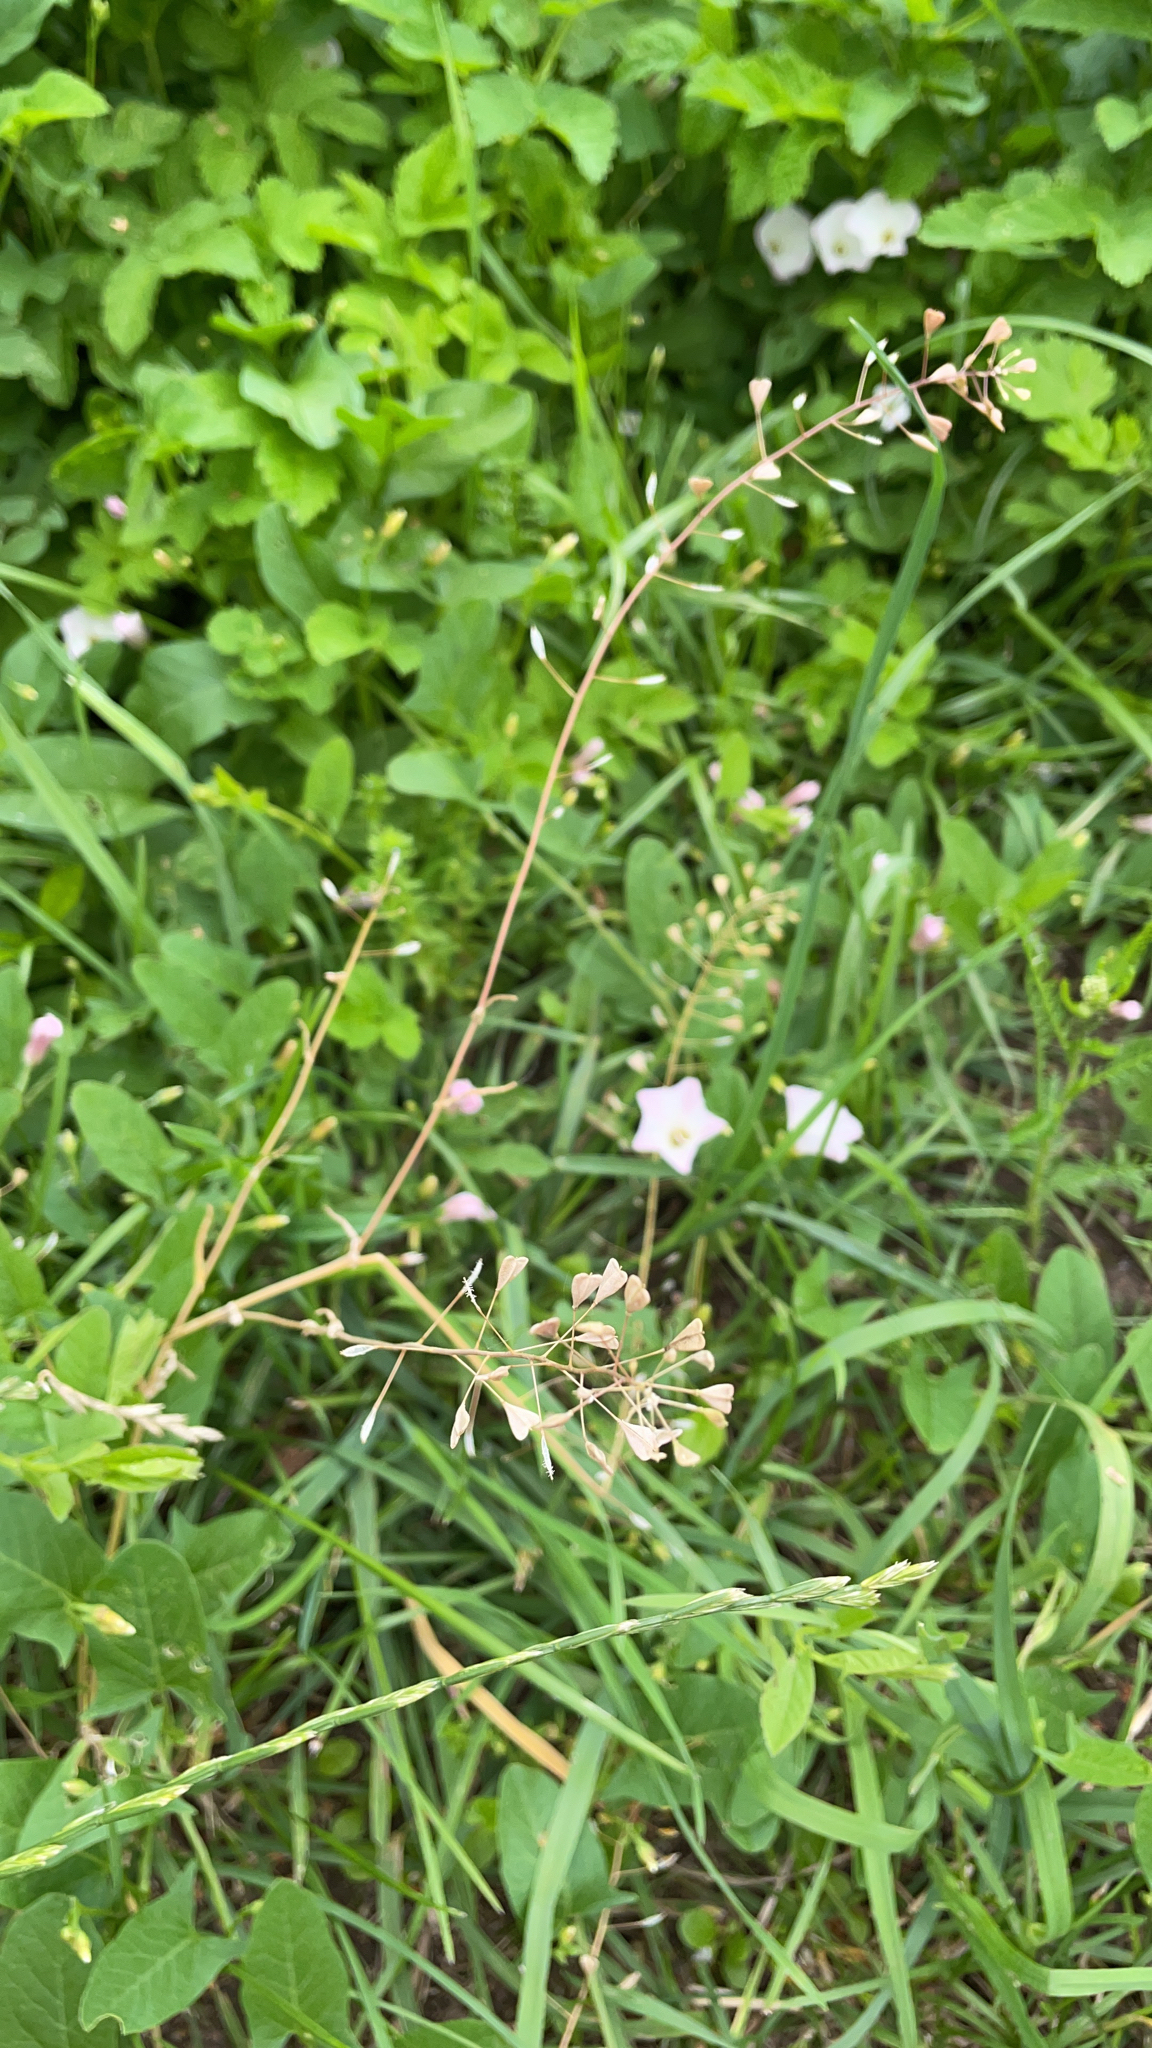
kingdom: Plantae
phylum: Tracheophyta
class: Magnoliopsida
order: Brassicales
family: Brassicaceae
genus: Capsella
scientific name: Capsella bursa-pastoris
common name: Shepherd's purse
